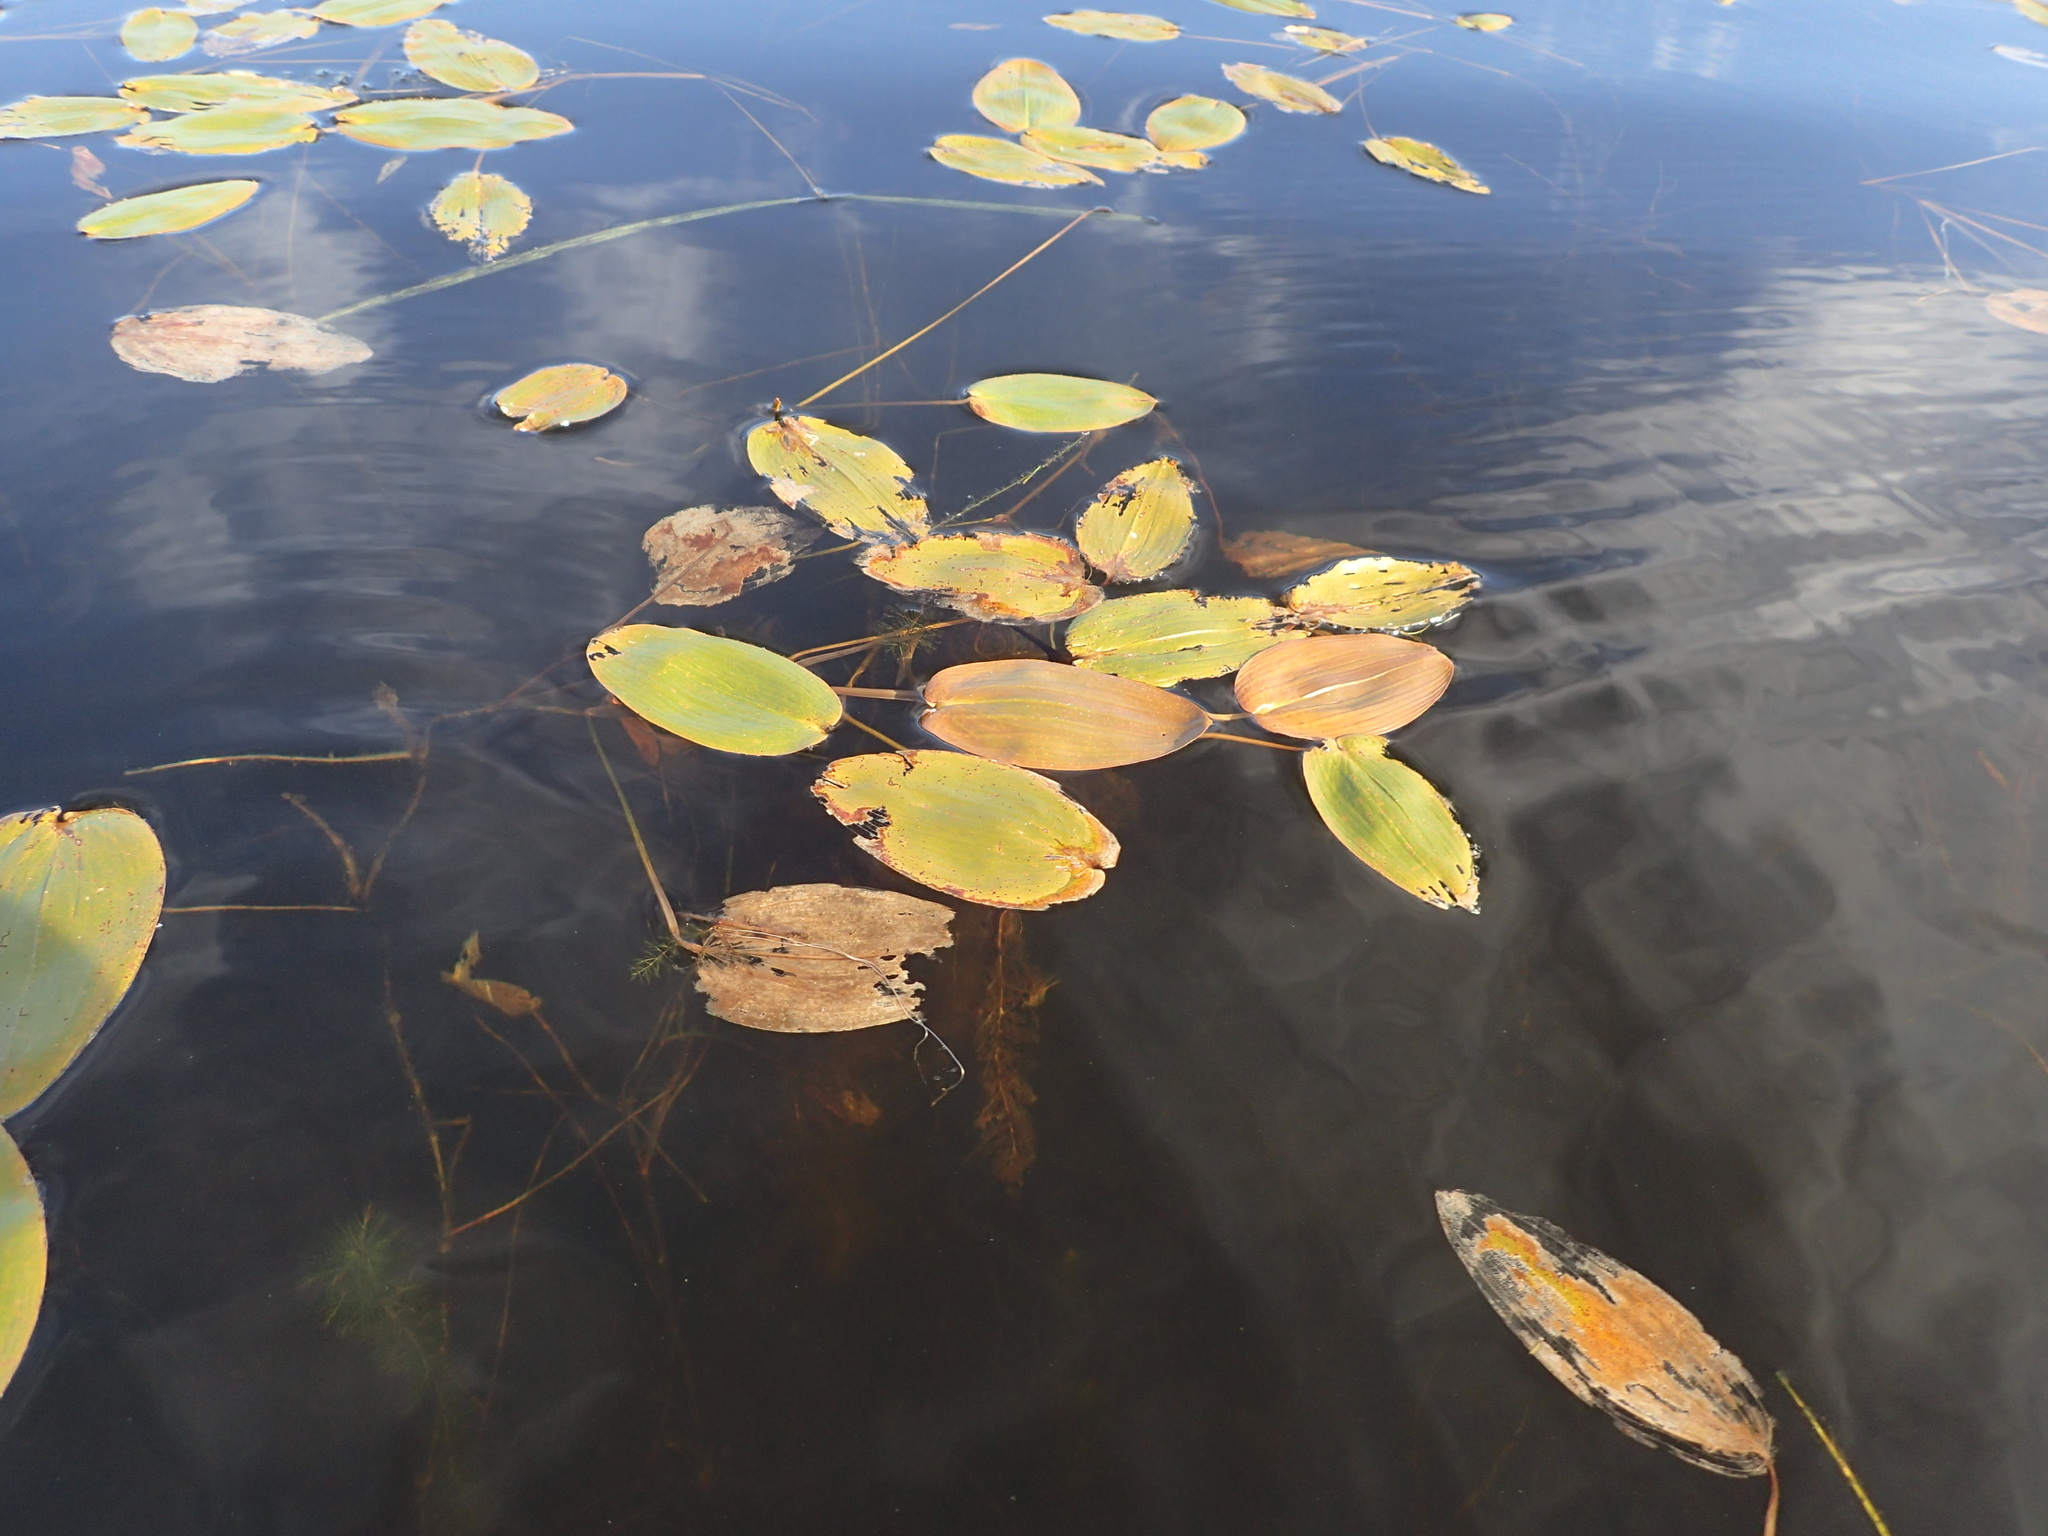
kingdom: Plantae
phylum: Tracheophyta
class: Liliopsida
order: Alismatales
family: Potamogetonaceae
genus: Potamogeton
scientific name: Potamogeton natans
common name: Broad-leaved pondweed
